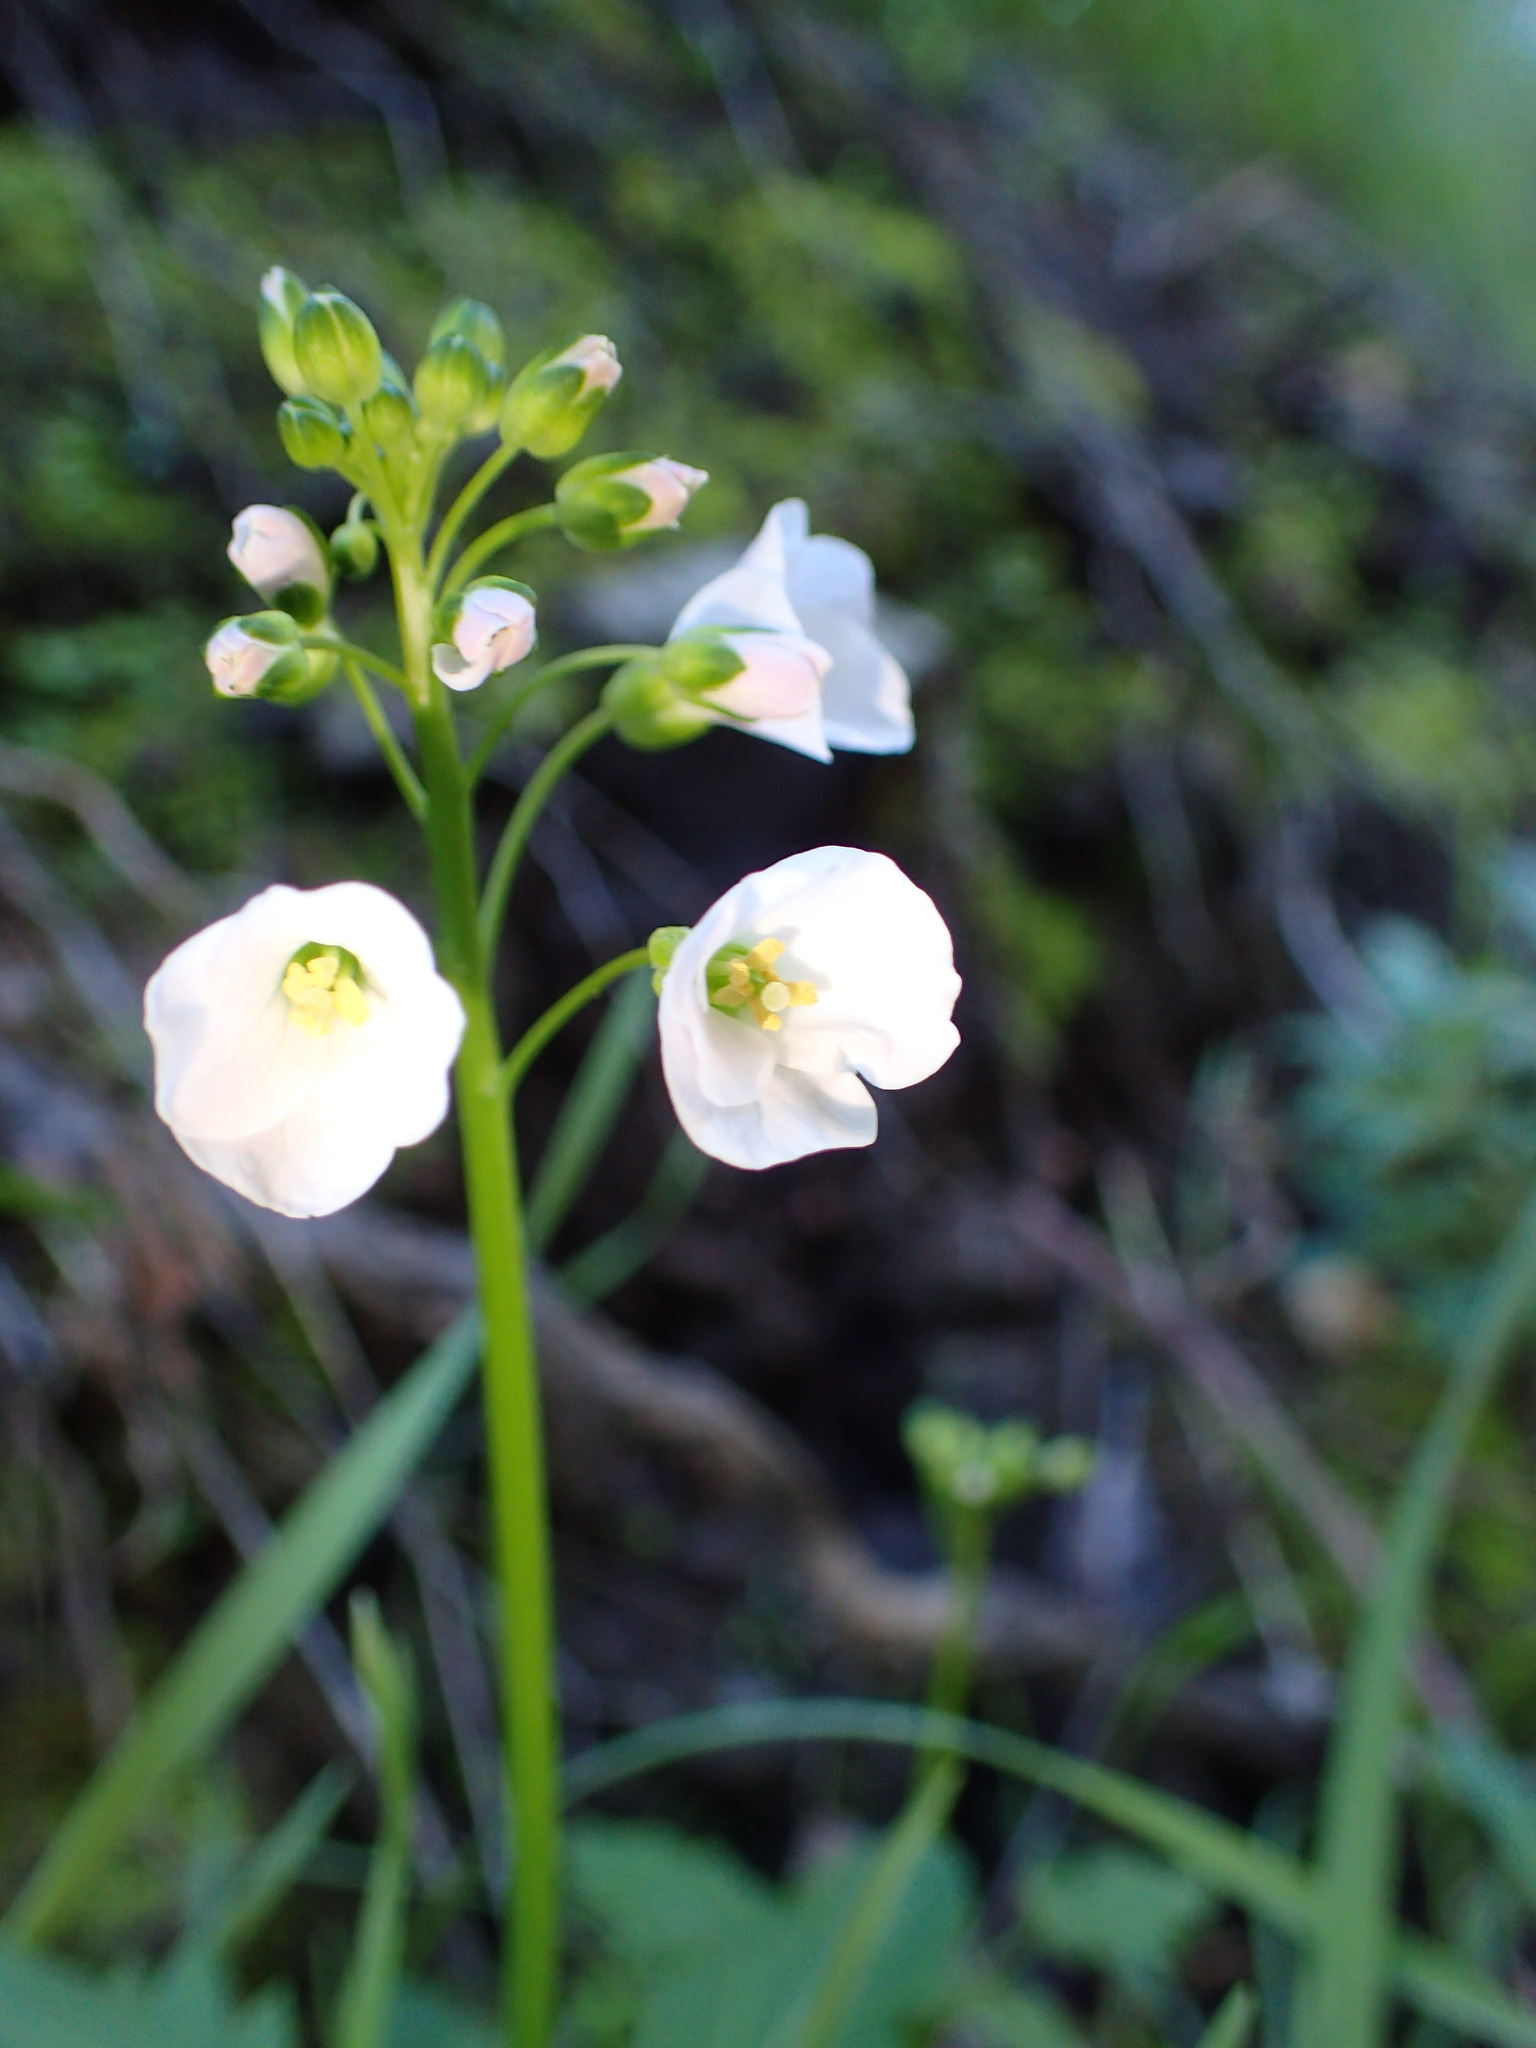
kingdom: Plantae
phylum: Tracheophyta
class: Magnoliopsida
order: Brassicales
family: Brassicaceae
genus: Cardamine
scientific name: Cardamine californica
